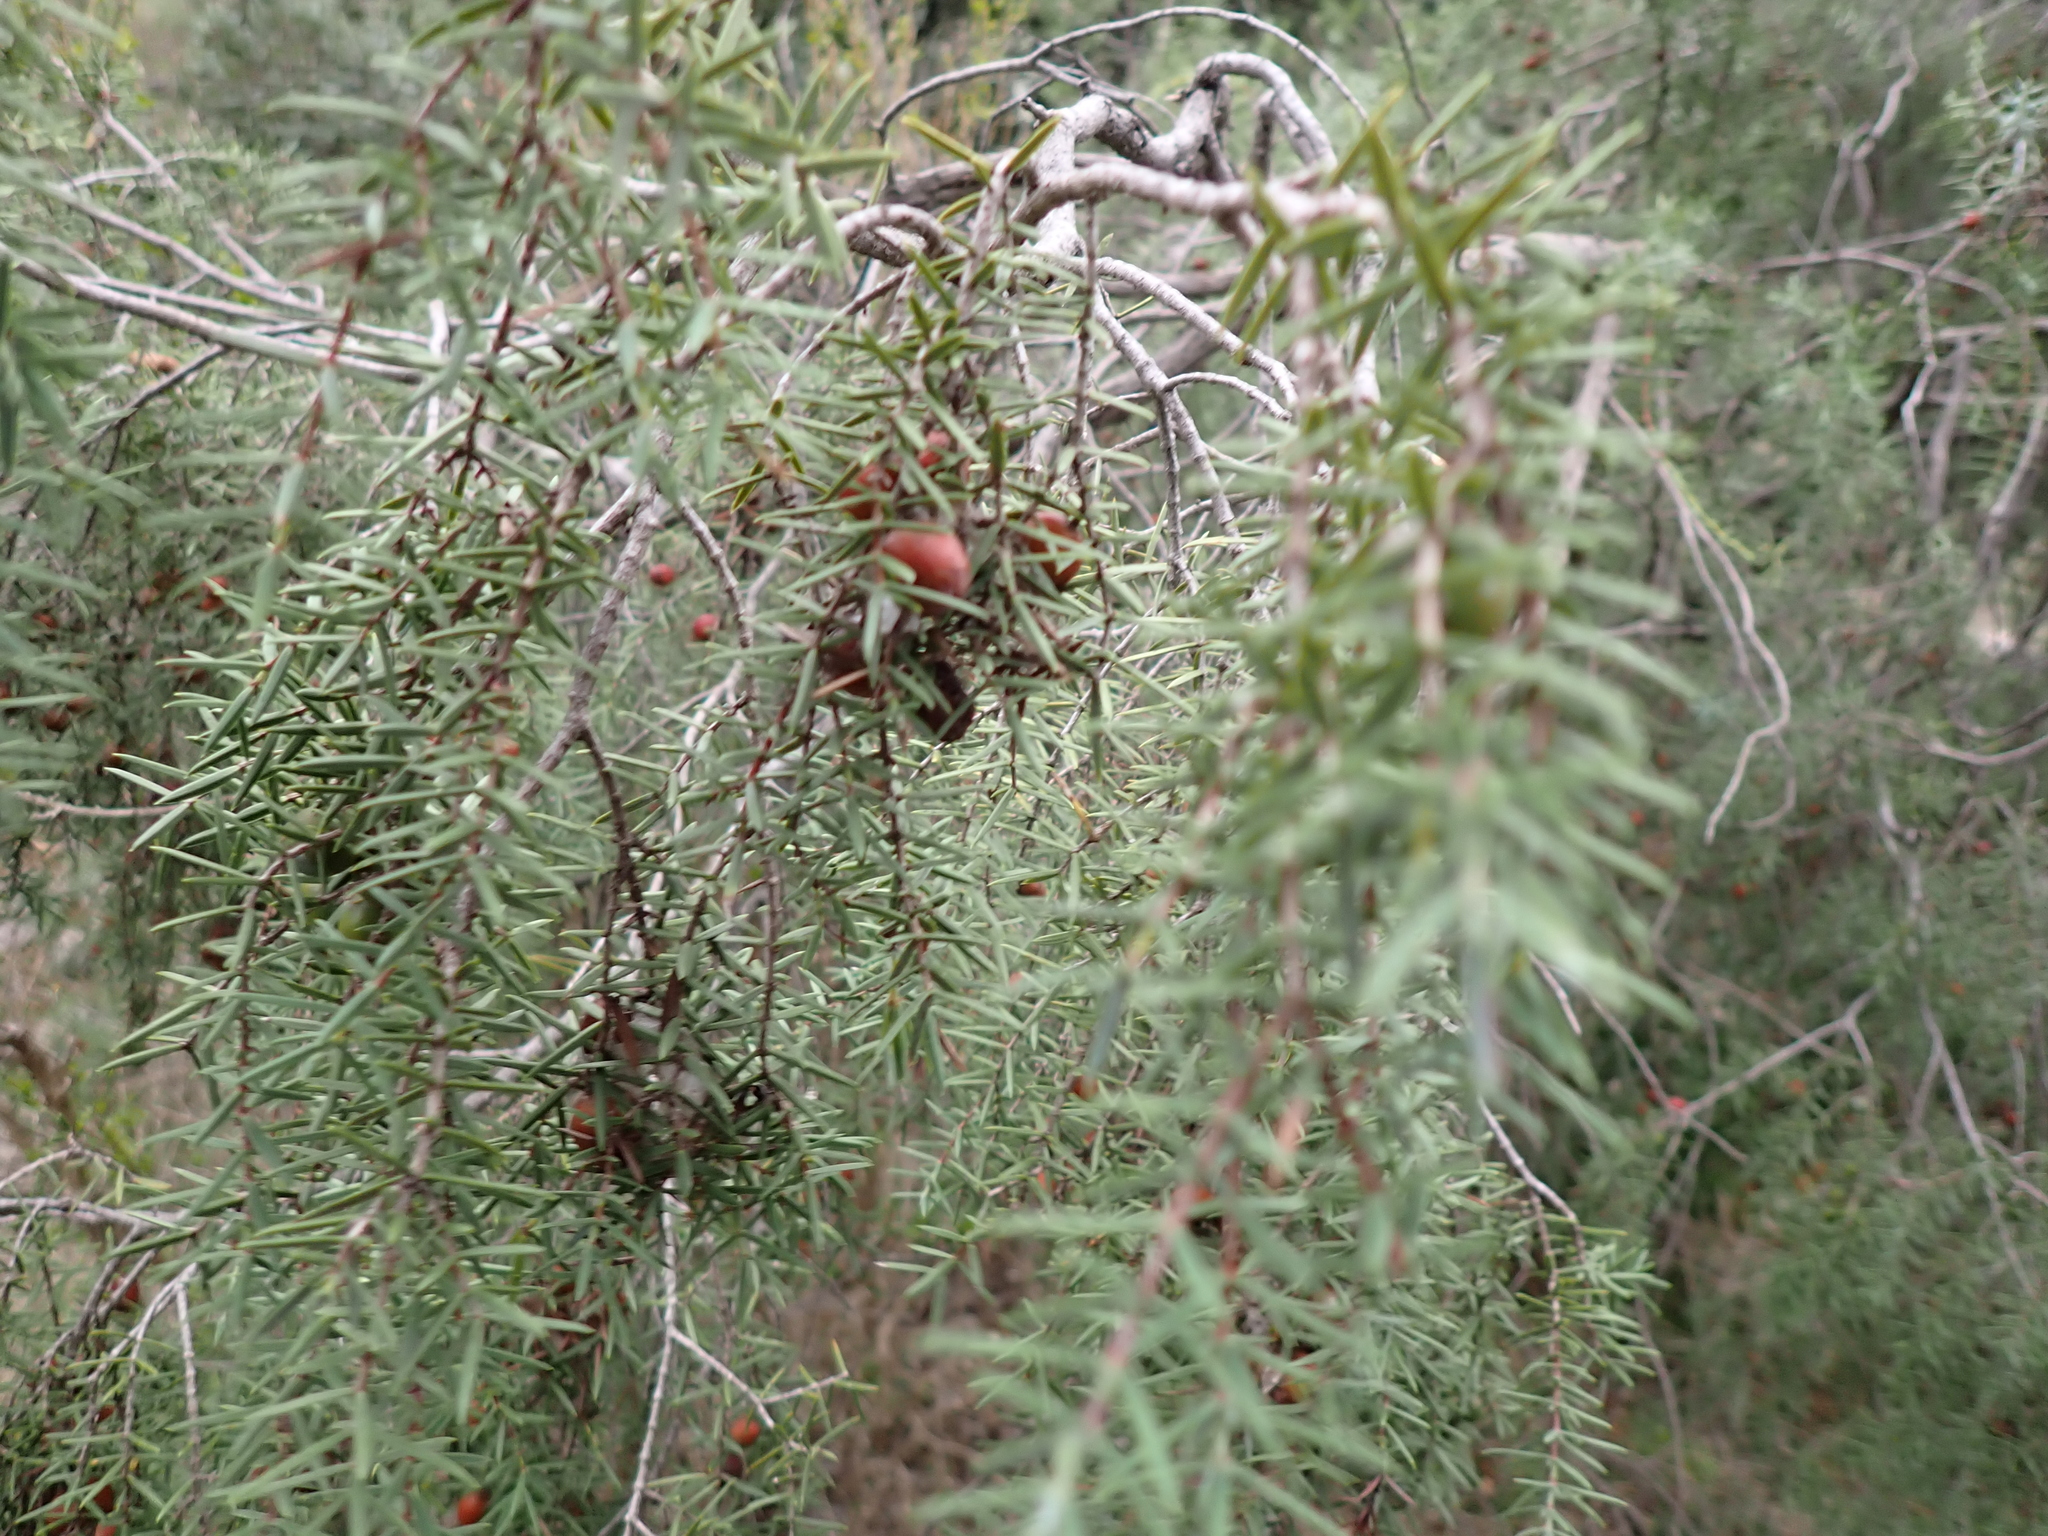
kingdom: Plantae
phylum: Tracheophyta
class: Pinopsida
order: Pinales
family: Cupressaceae
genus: Juniperus
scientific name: Juniperus oxycedrus
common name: Prickly juniper
